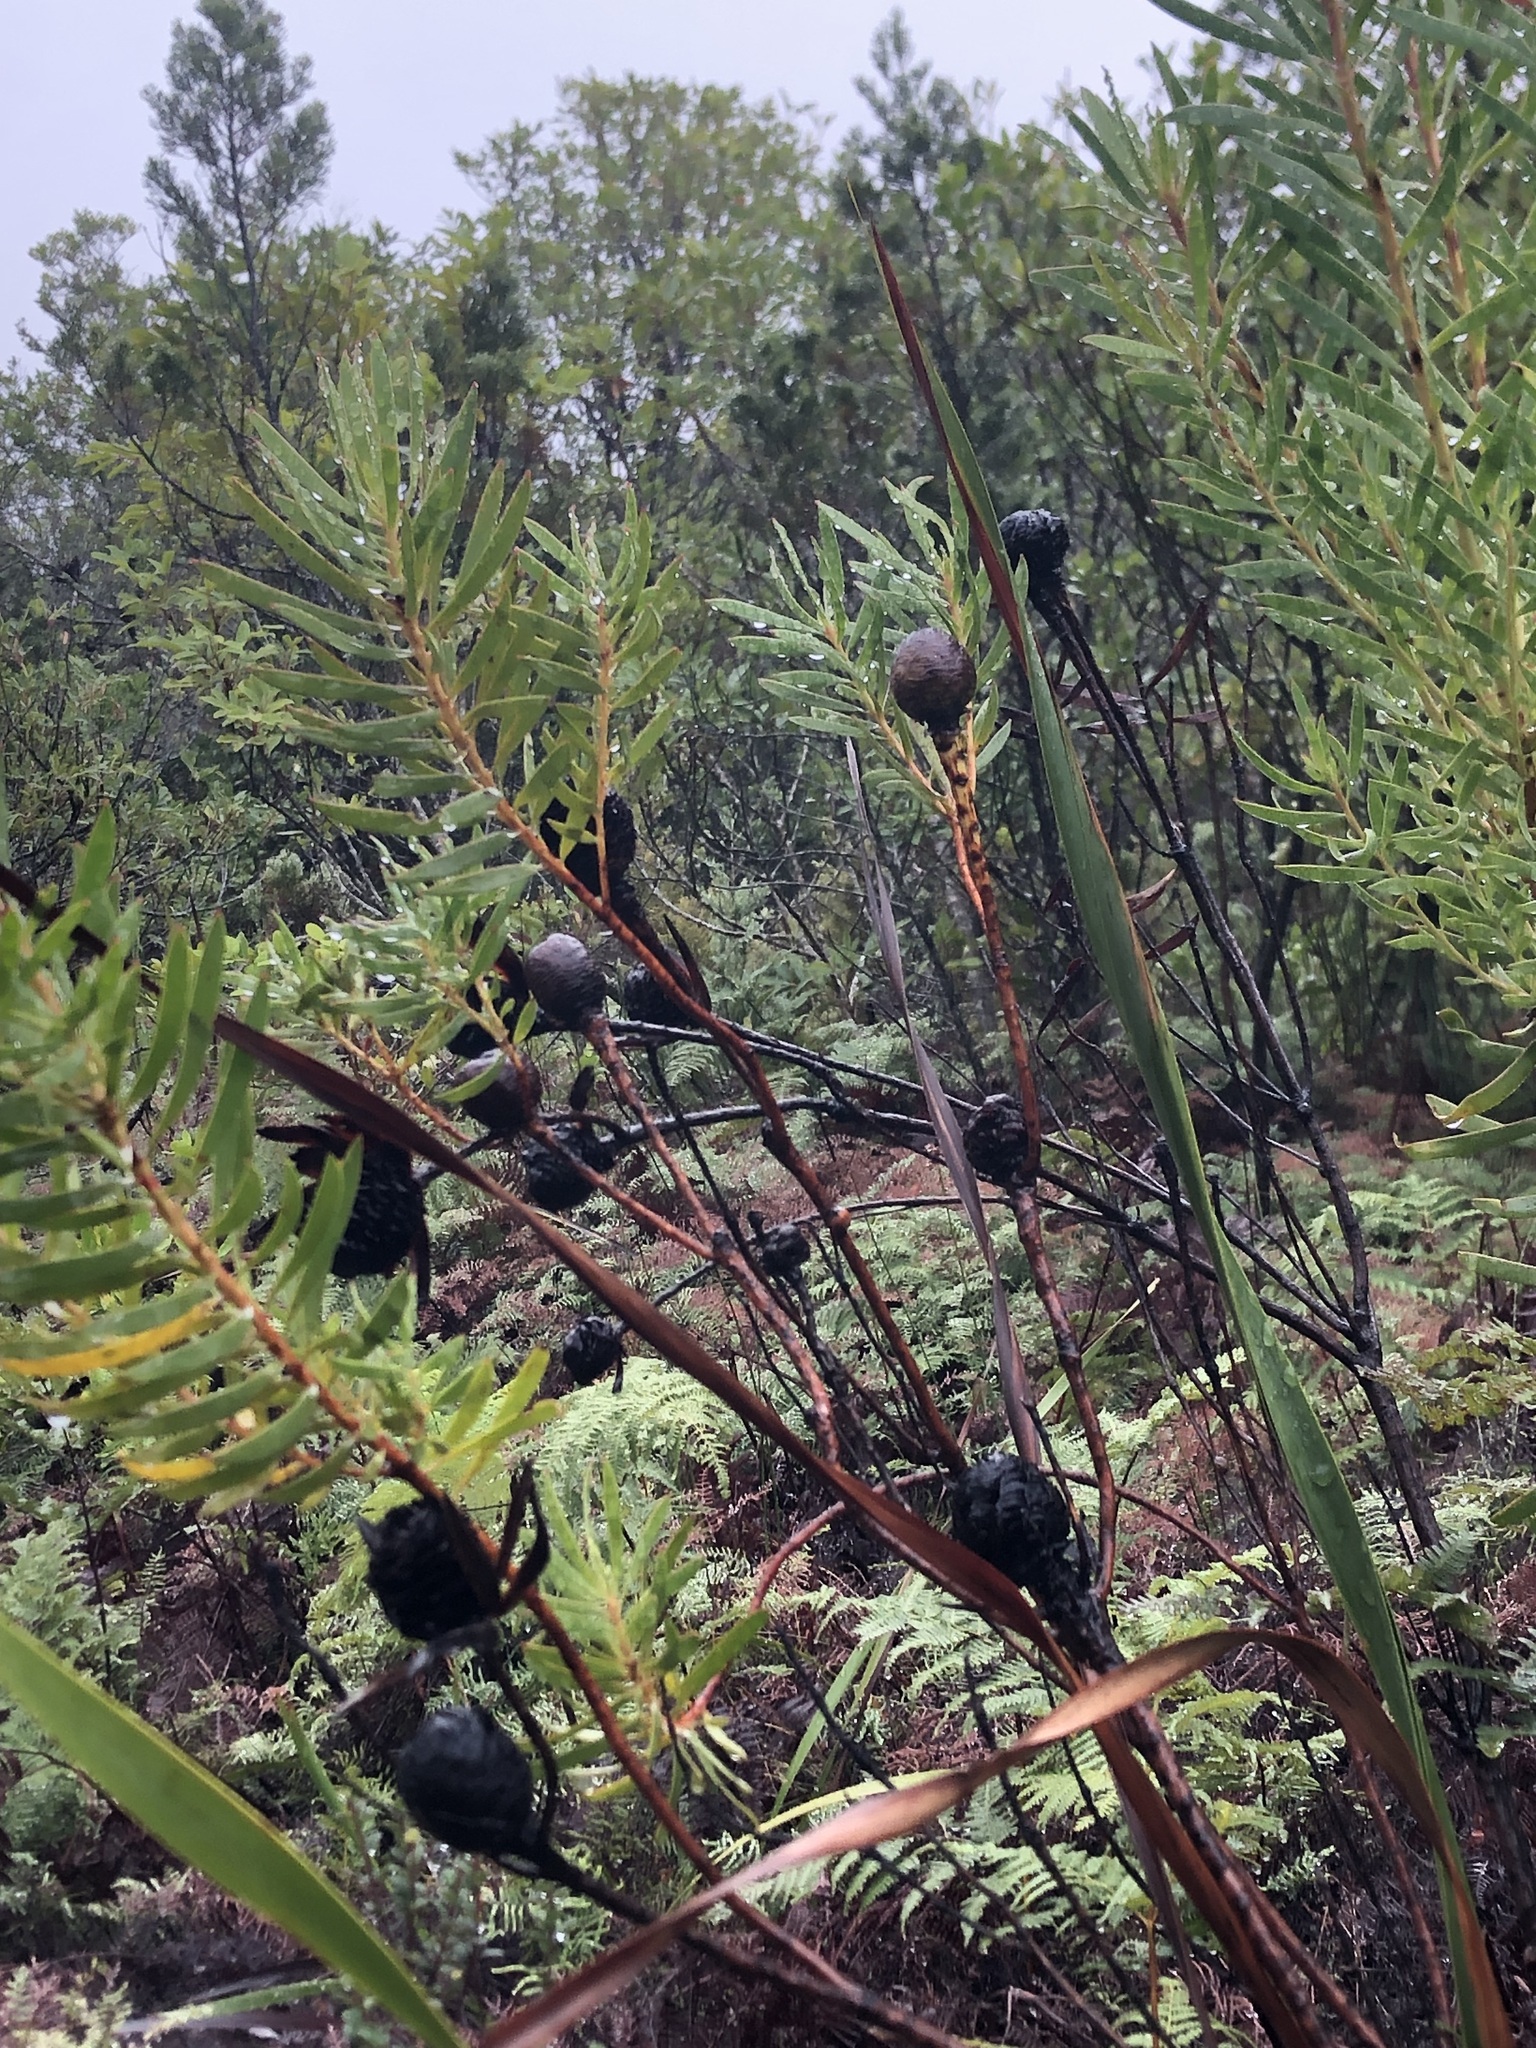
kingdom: Plantae
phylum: Tracheophyta
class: Magnoliopsida
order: Proteales
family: Proteaceae
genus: Leucadendron
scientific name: Leucadendron xanthoconus
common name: Sickle-leaf conebush
